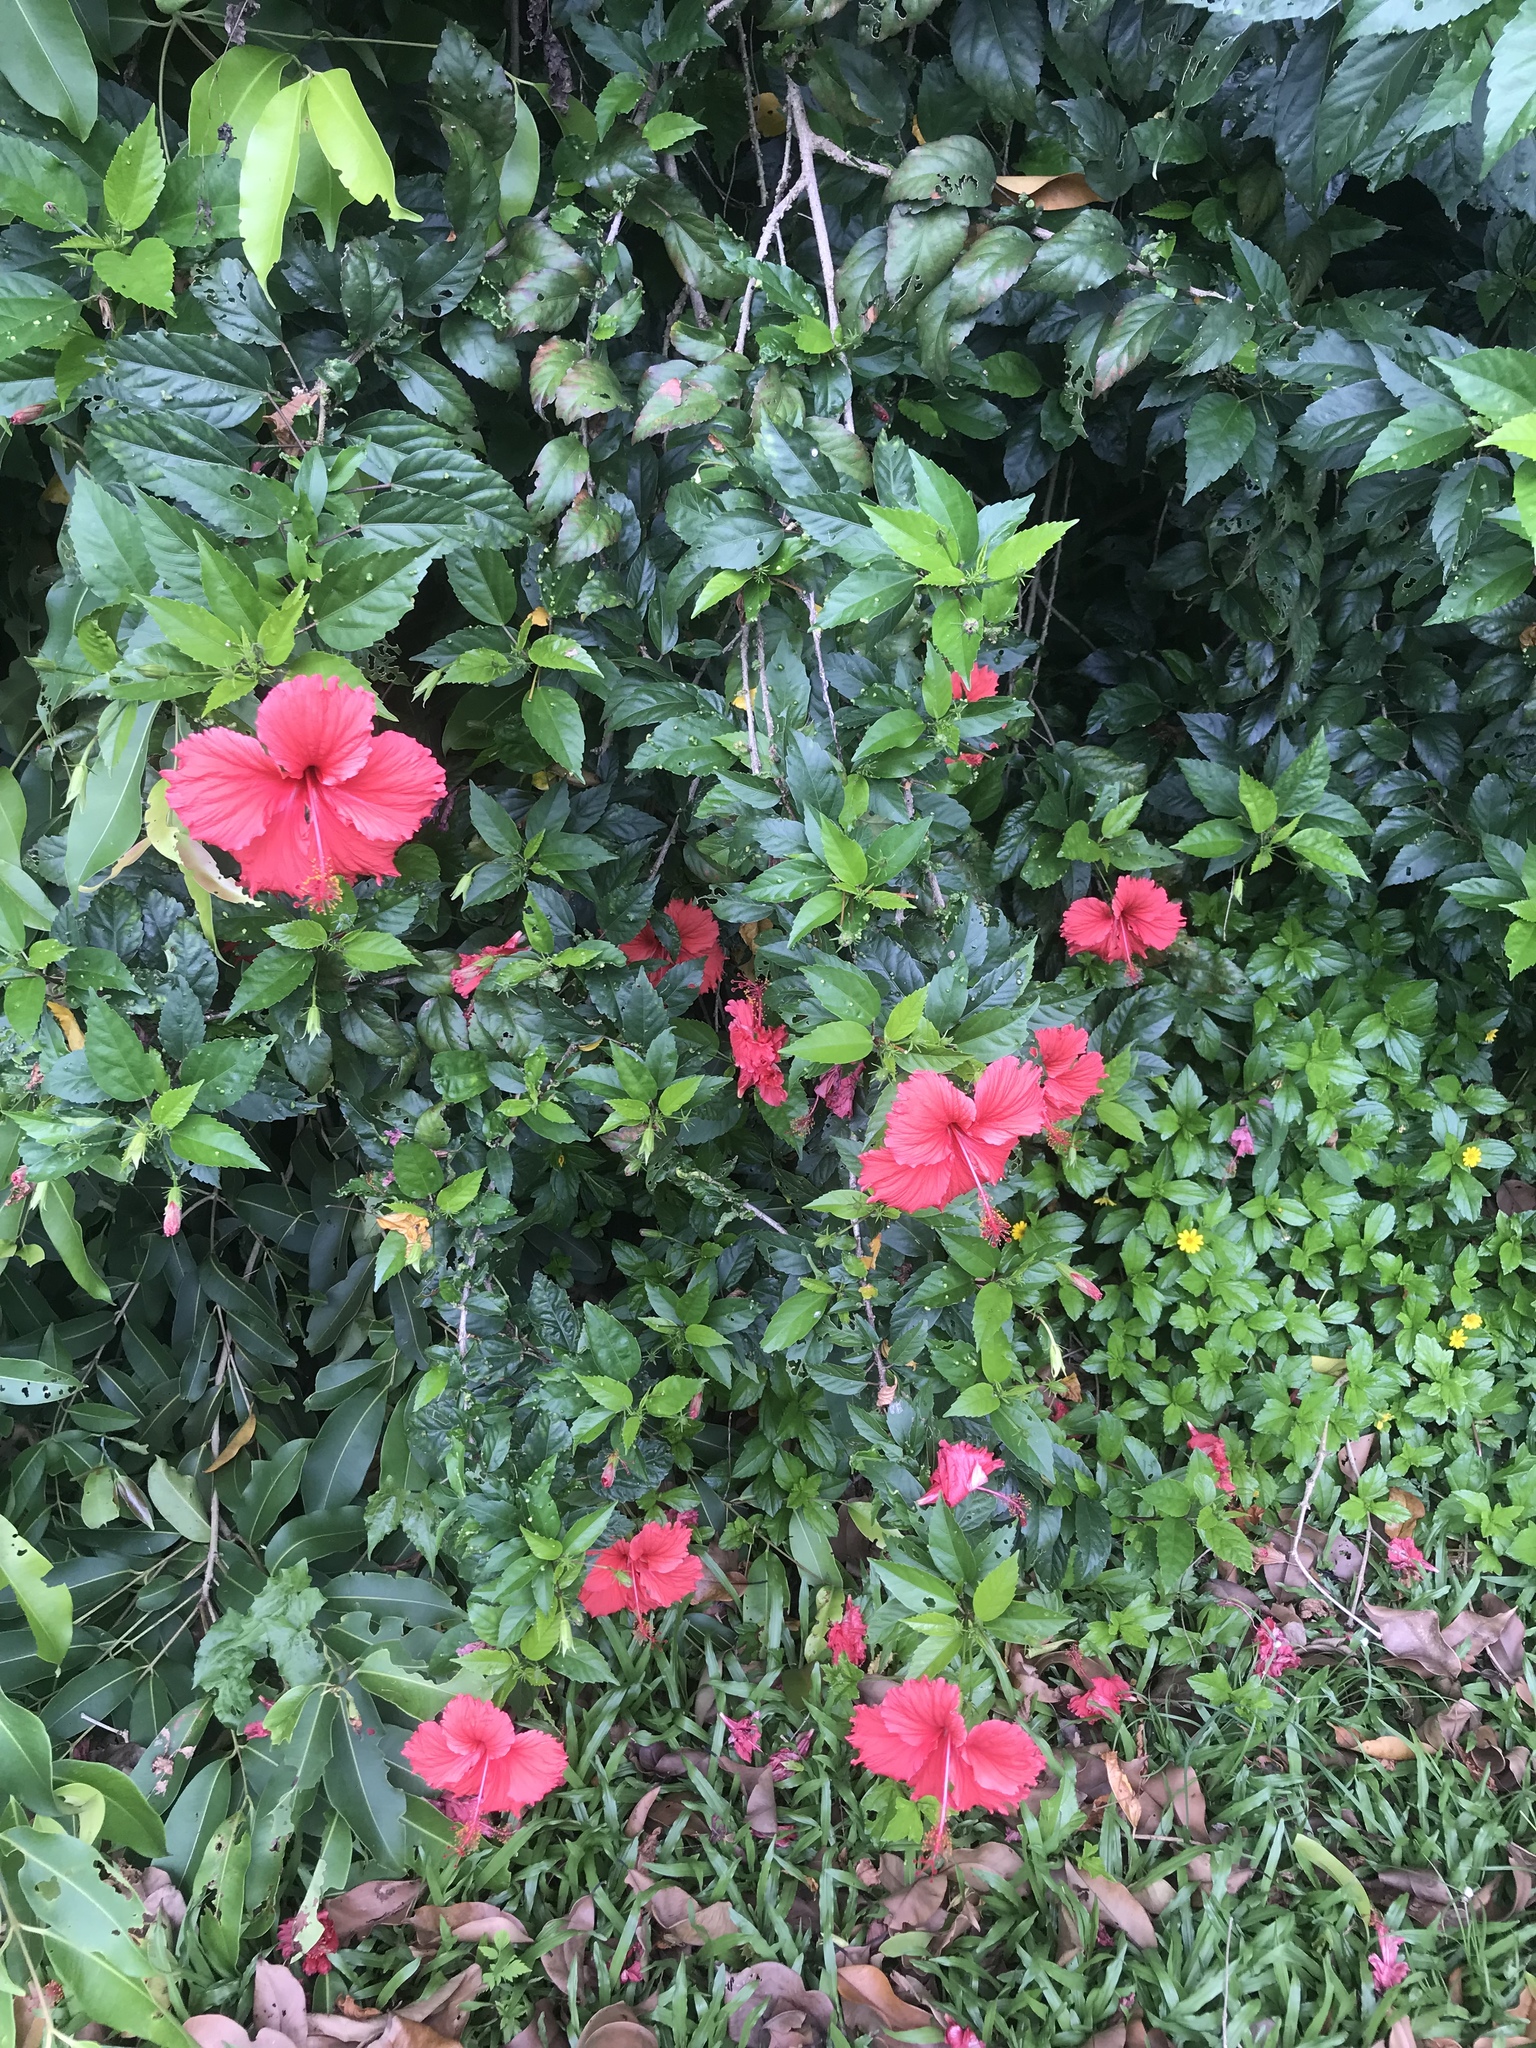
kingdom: Plantae
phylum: Tracheophyta
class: Magnoliopsida
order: Malvales
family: Malvaceae
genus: Hibiscus
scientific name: Hibiscus archeri
